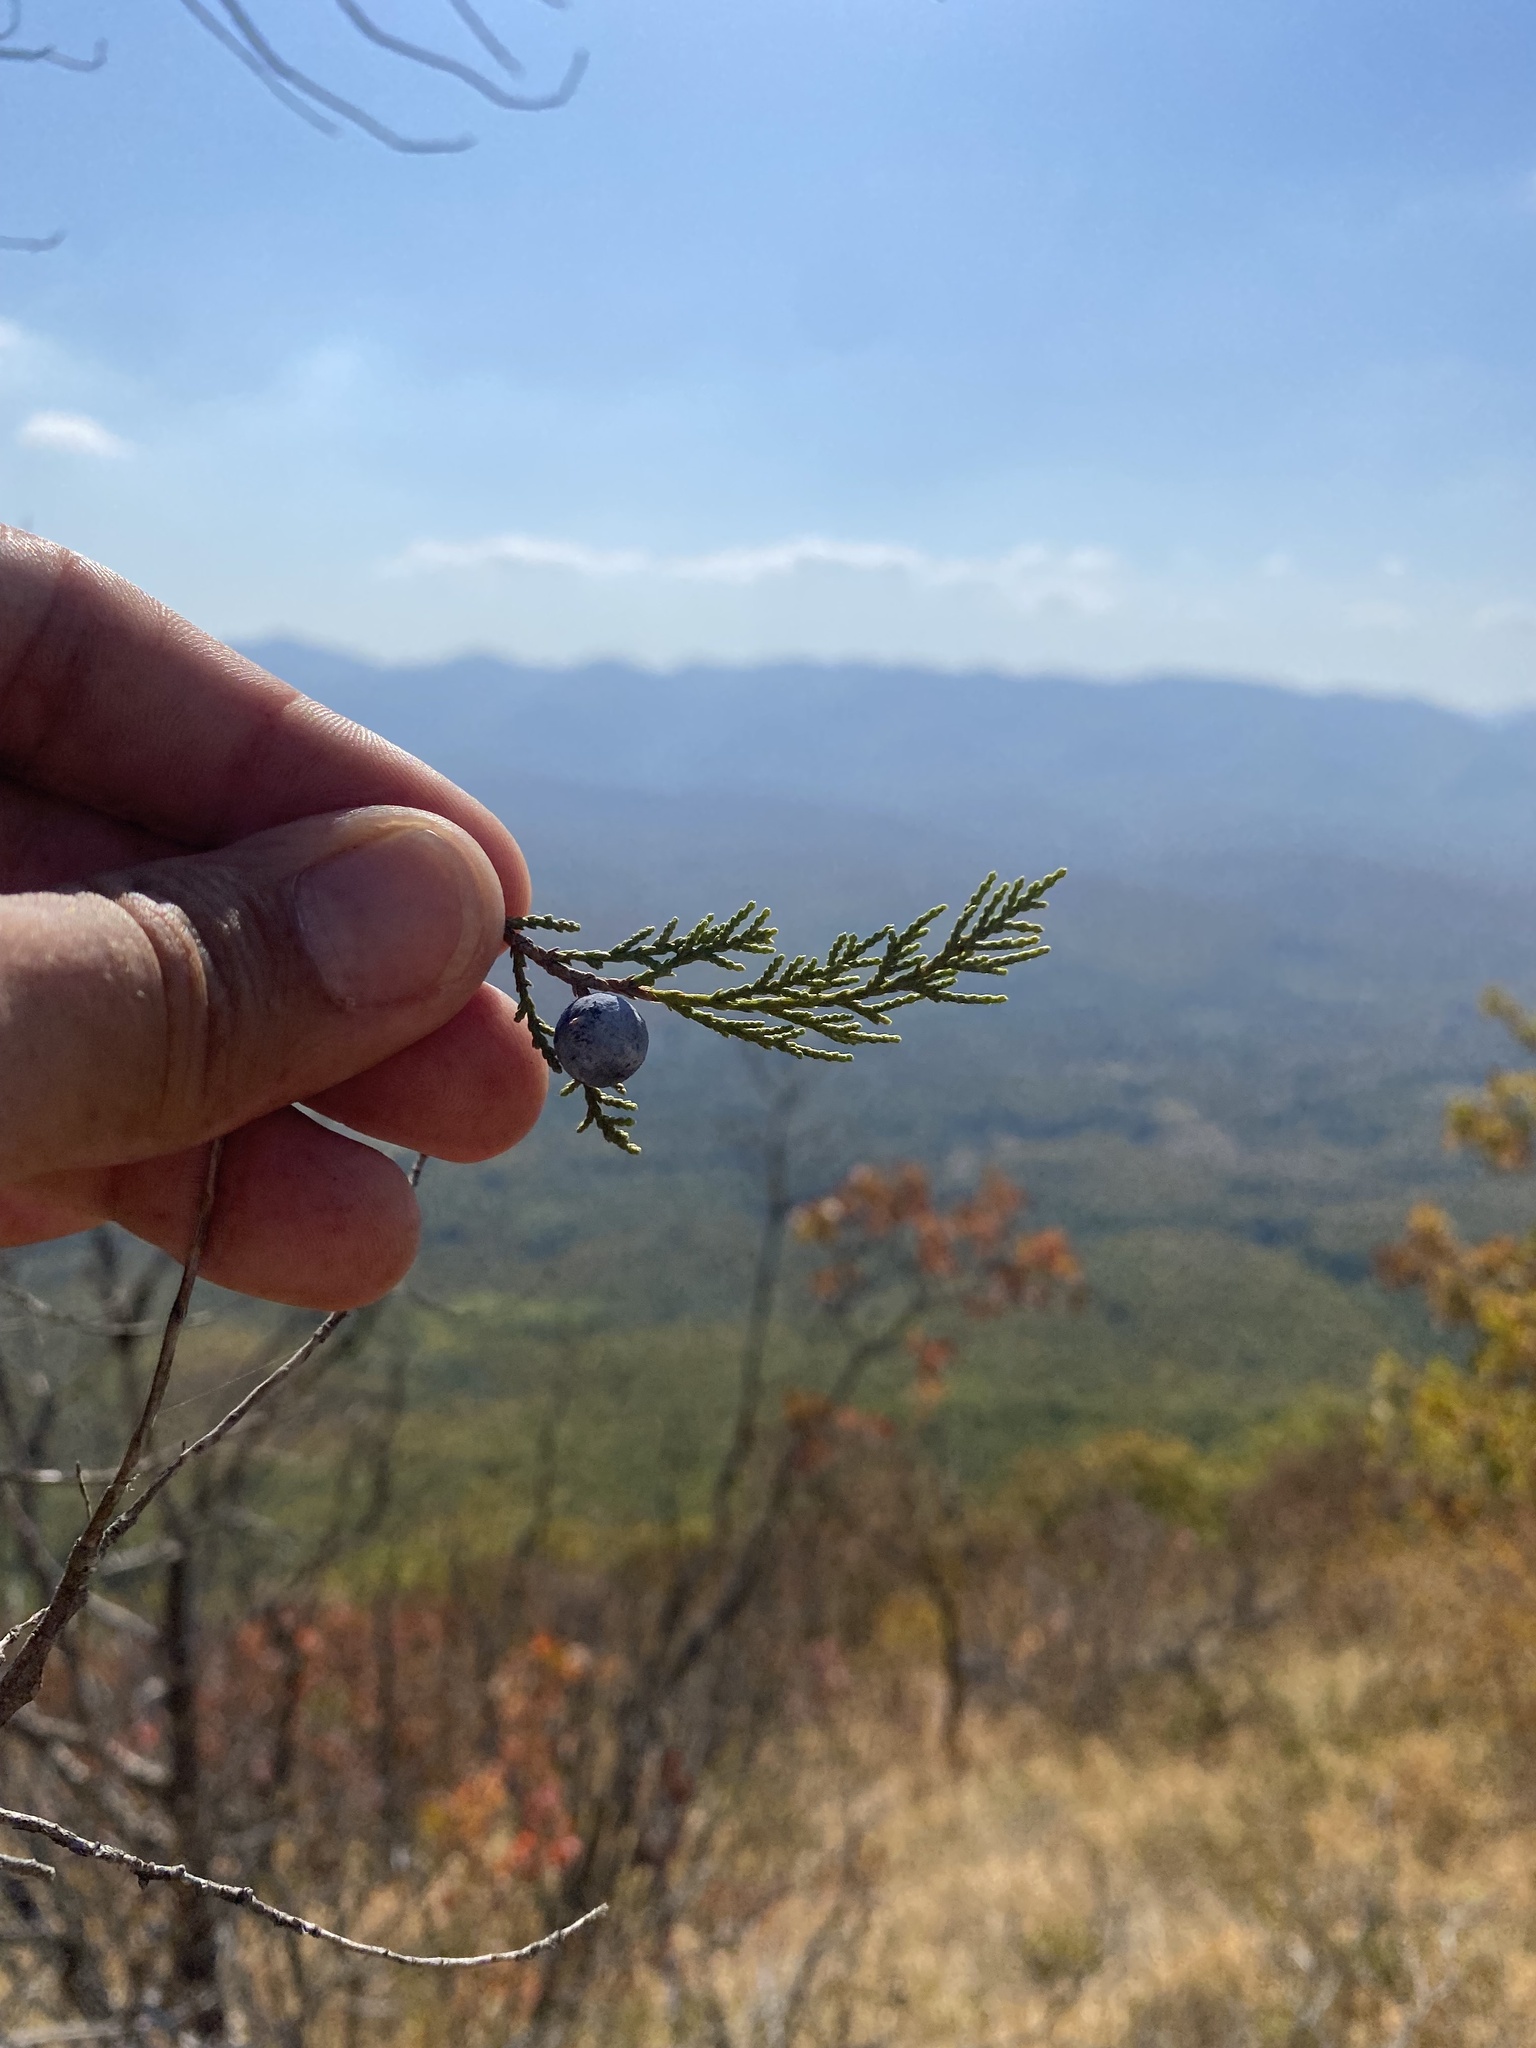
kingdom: Plantae
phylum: Tracheophyta
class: Pinopsida
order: Pinales
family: Cupressaceae
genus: Juniperus
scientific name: Juniperus excelsa
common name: Crimean juniper
